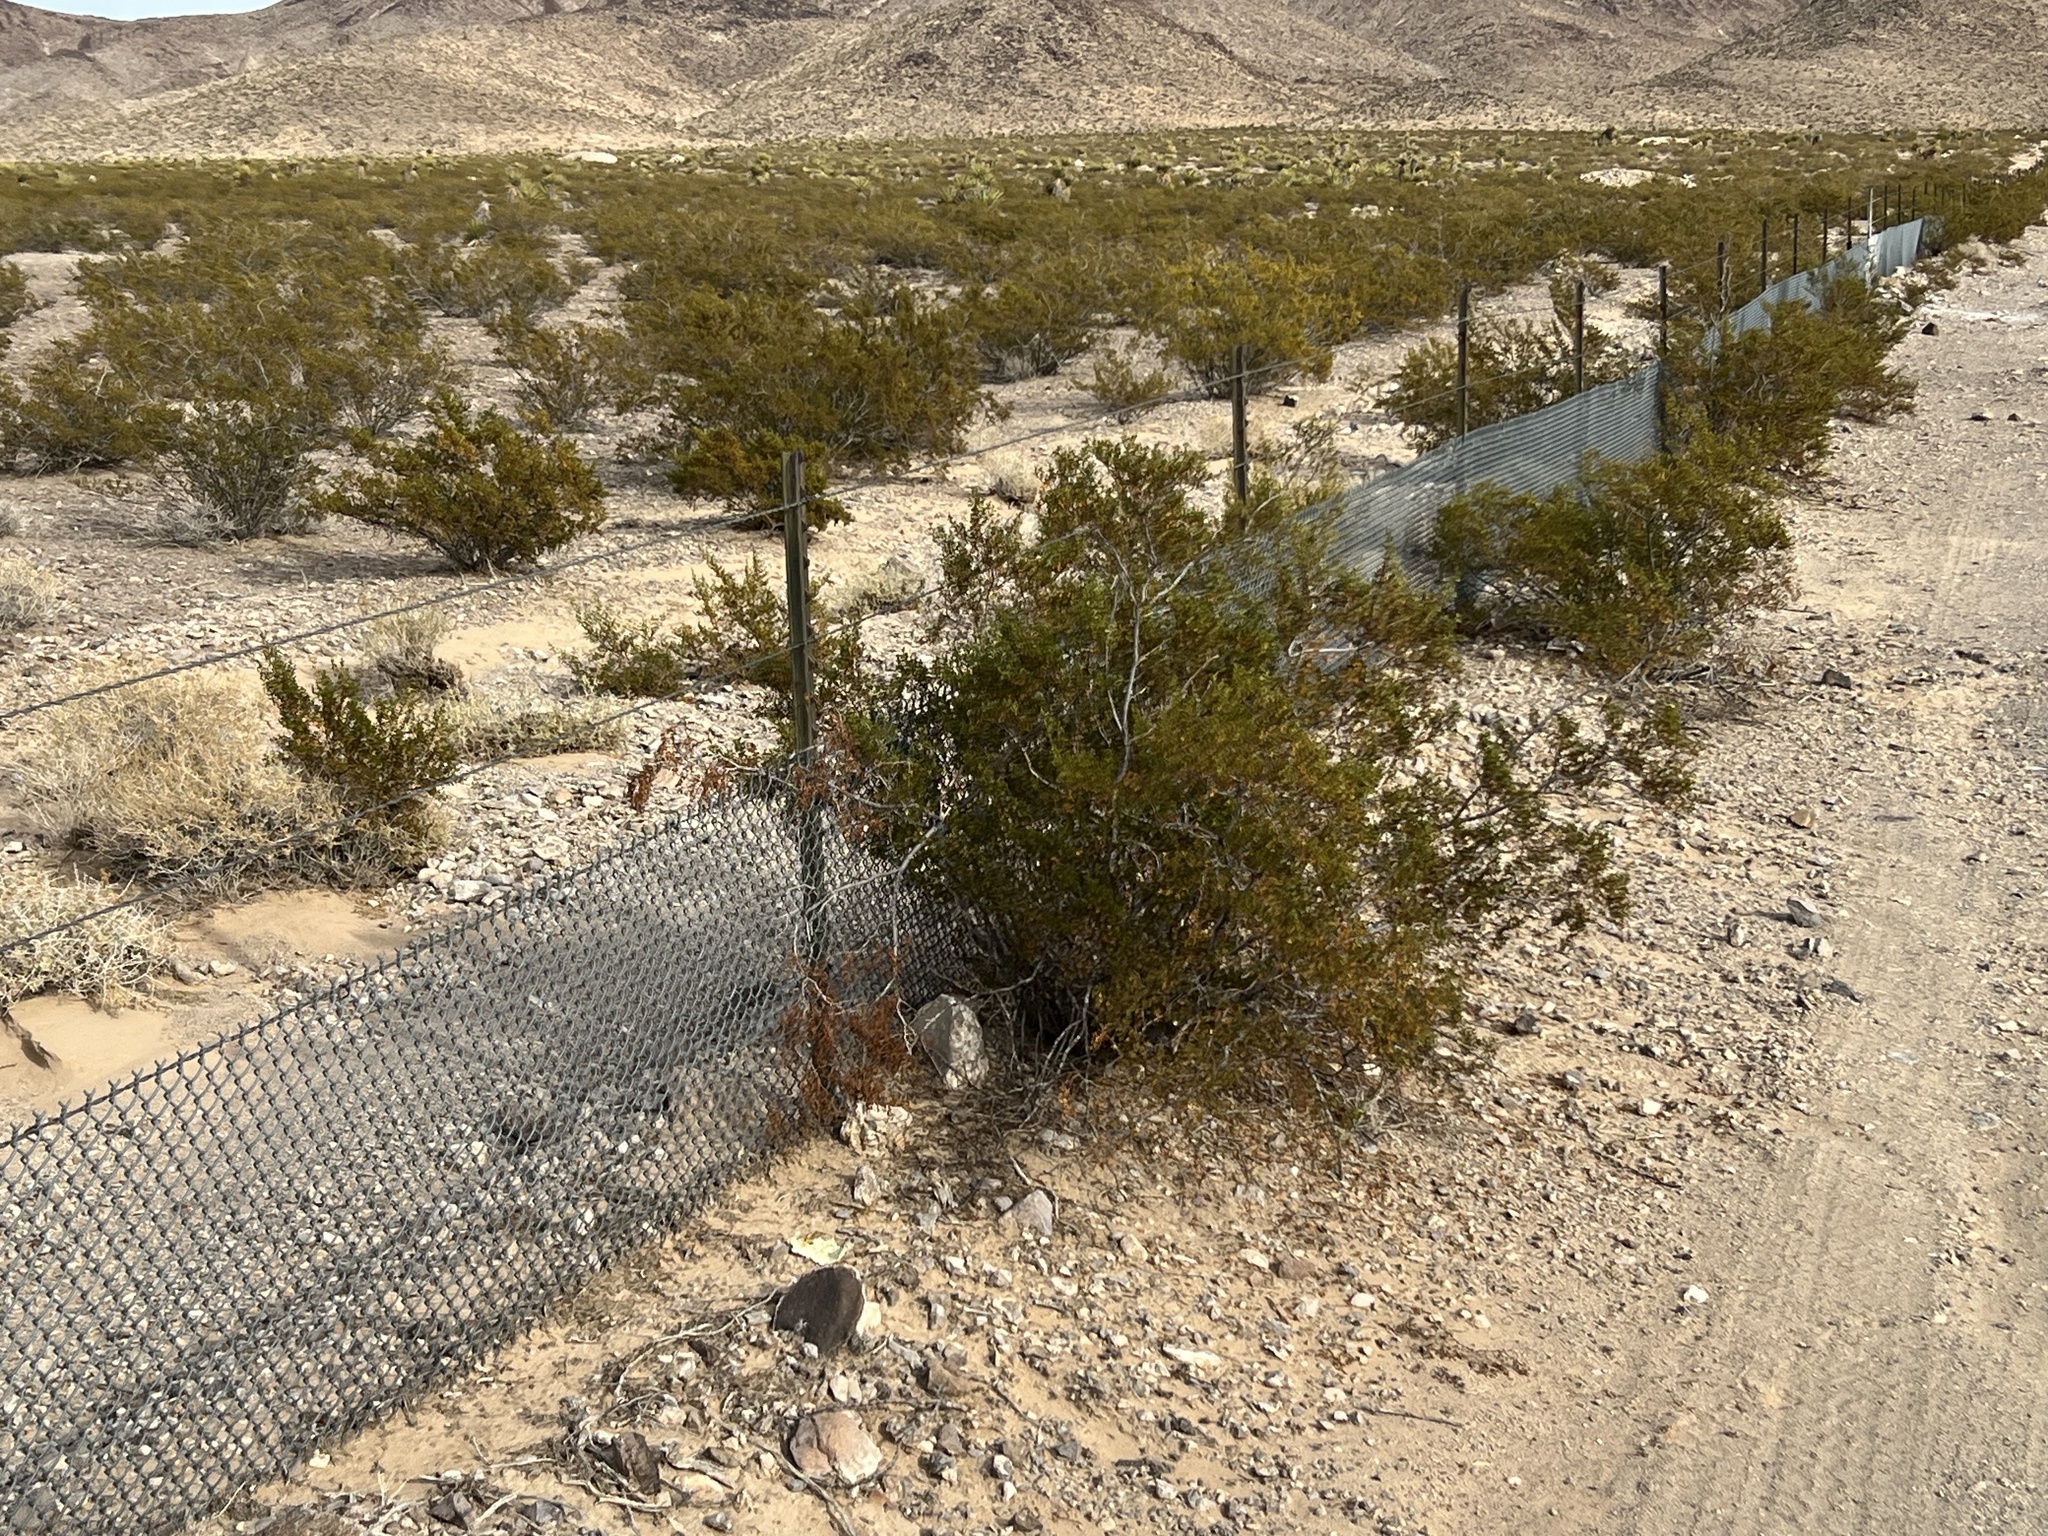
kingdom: Plantae
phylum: Tracheophyta
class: Magnoliopsida
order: Zygophyllales
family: Zygophyllaceae
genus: Larrea
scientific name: Larrea tridentata
